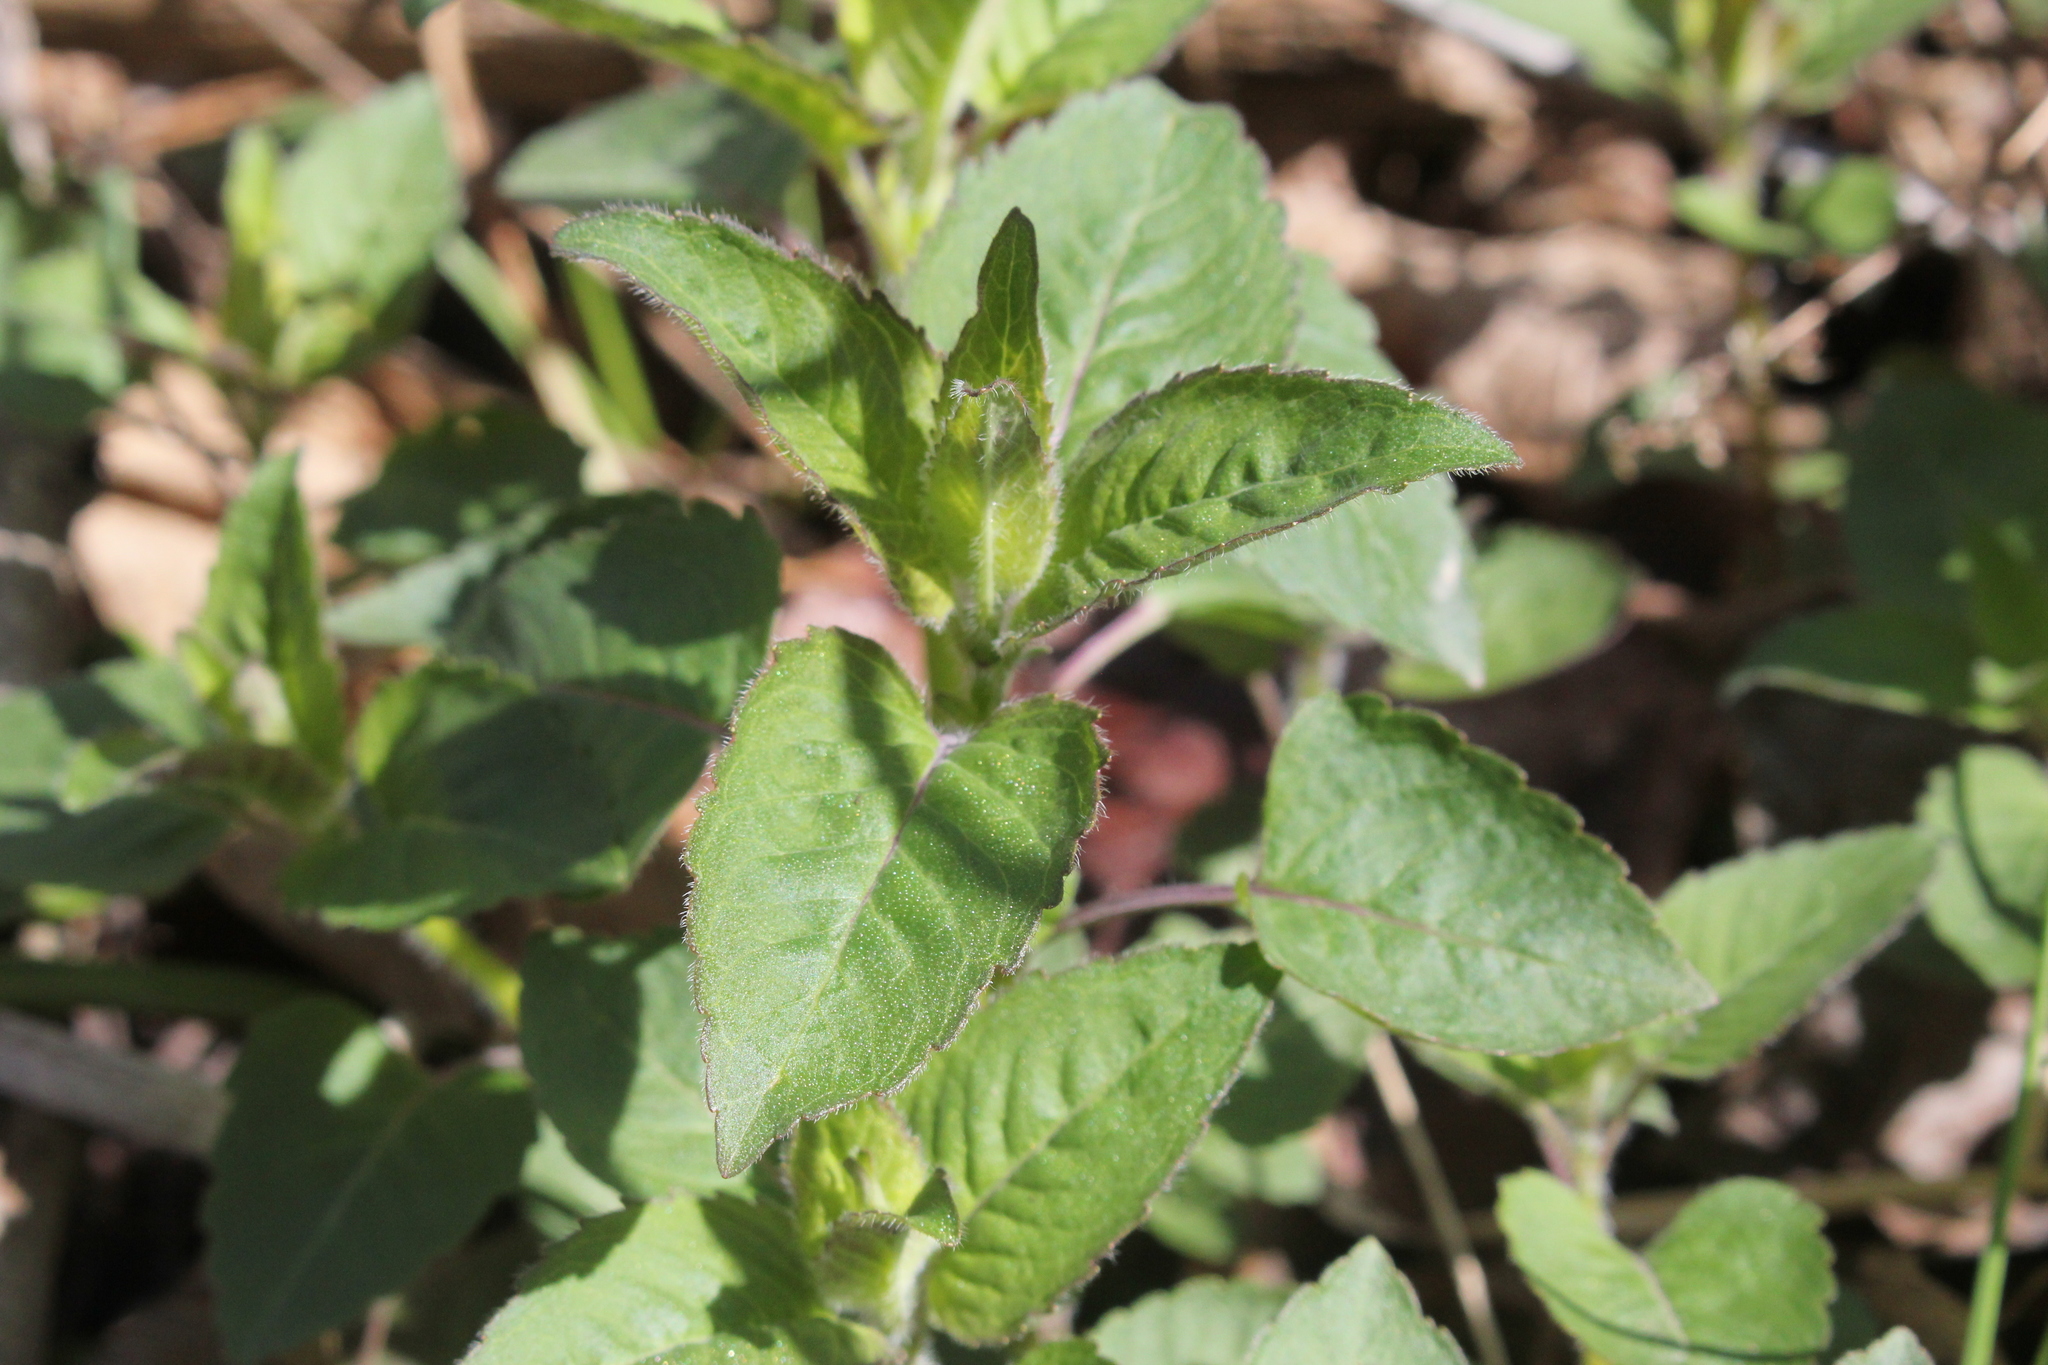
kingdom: Plantae
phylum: Tracheophyta
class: Magnoliopsida
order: Lamiales
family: Lamiaceae
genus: Monarda
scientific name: Monarda fistulosa
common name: Purple beebalm
